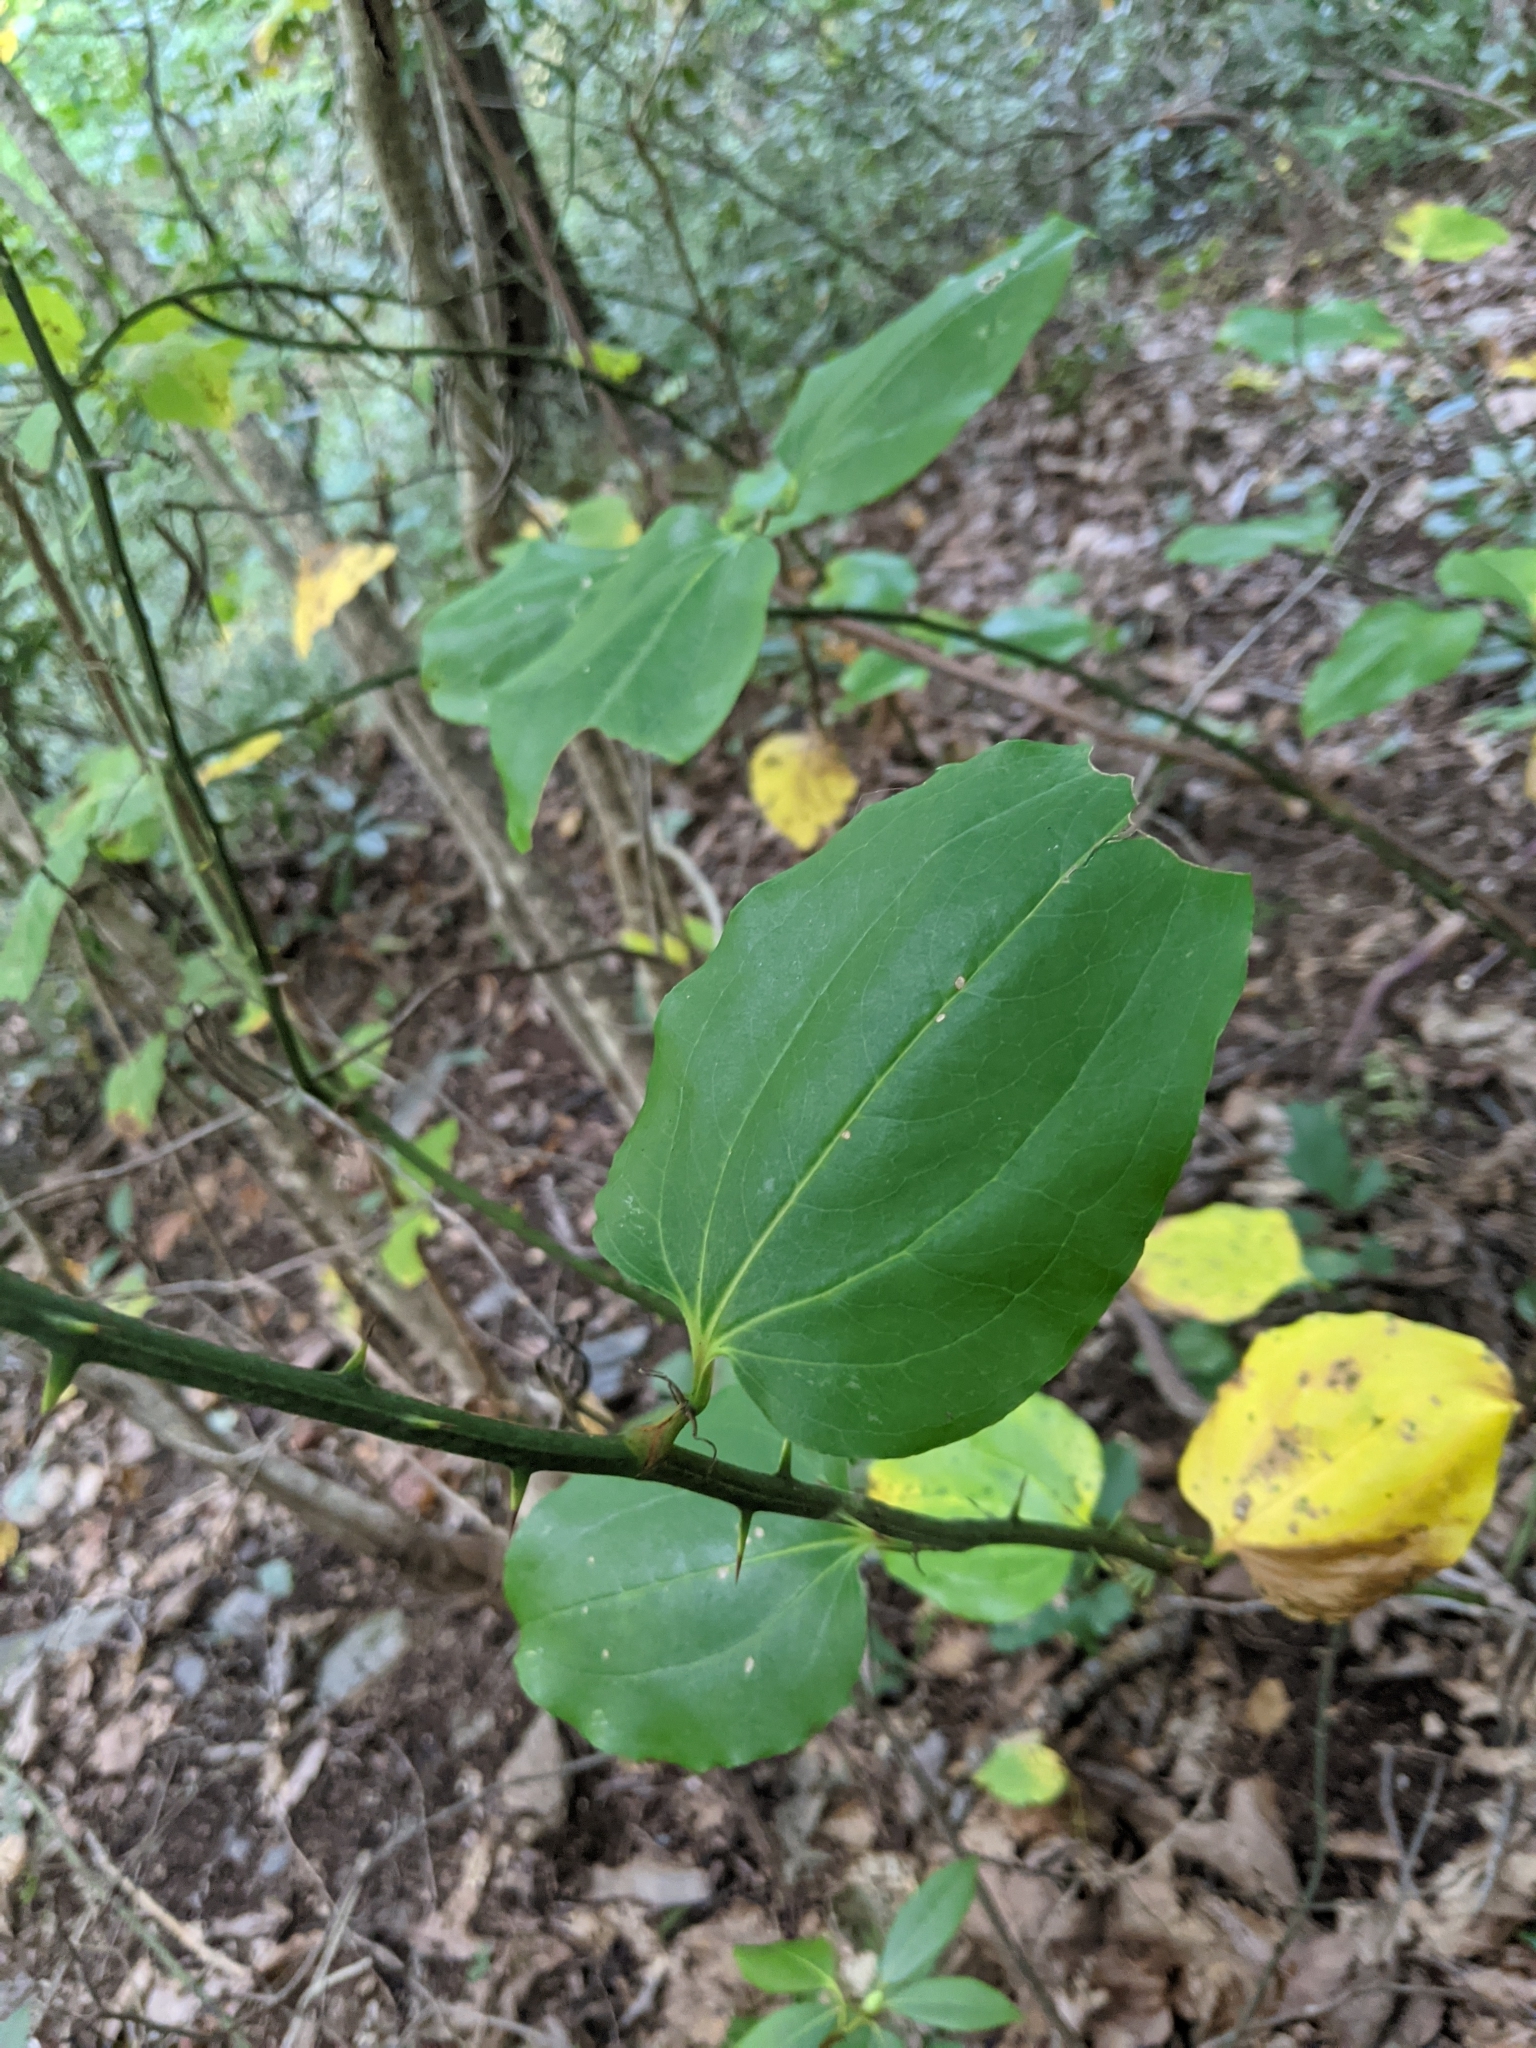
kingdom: Plantae
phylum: Tracheophyta
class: Liliopsida
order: Liliales
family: Smilacaceae
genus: Smilax
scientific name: Smilax rotundifolia
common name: Bullbriar
